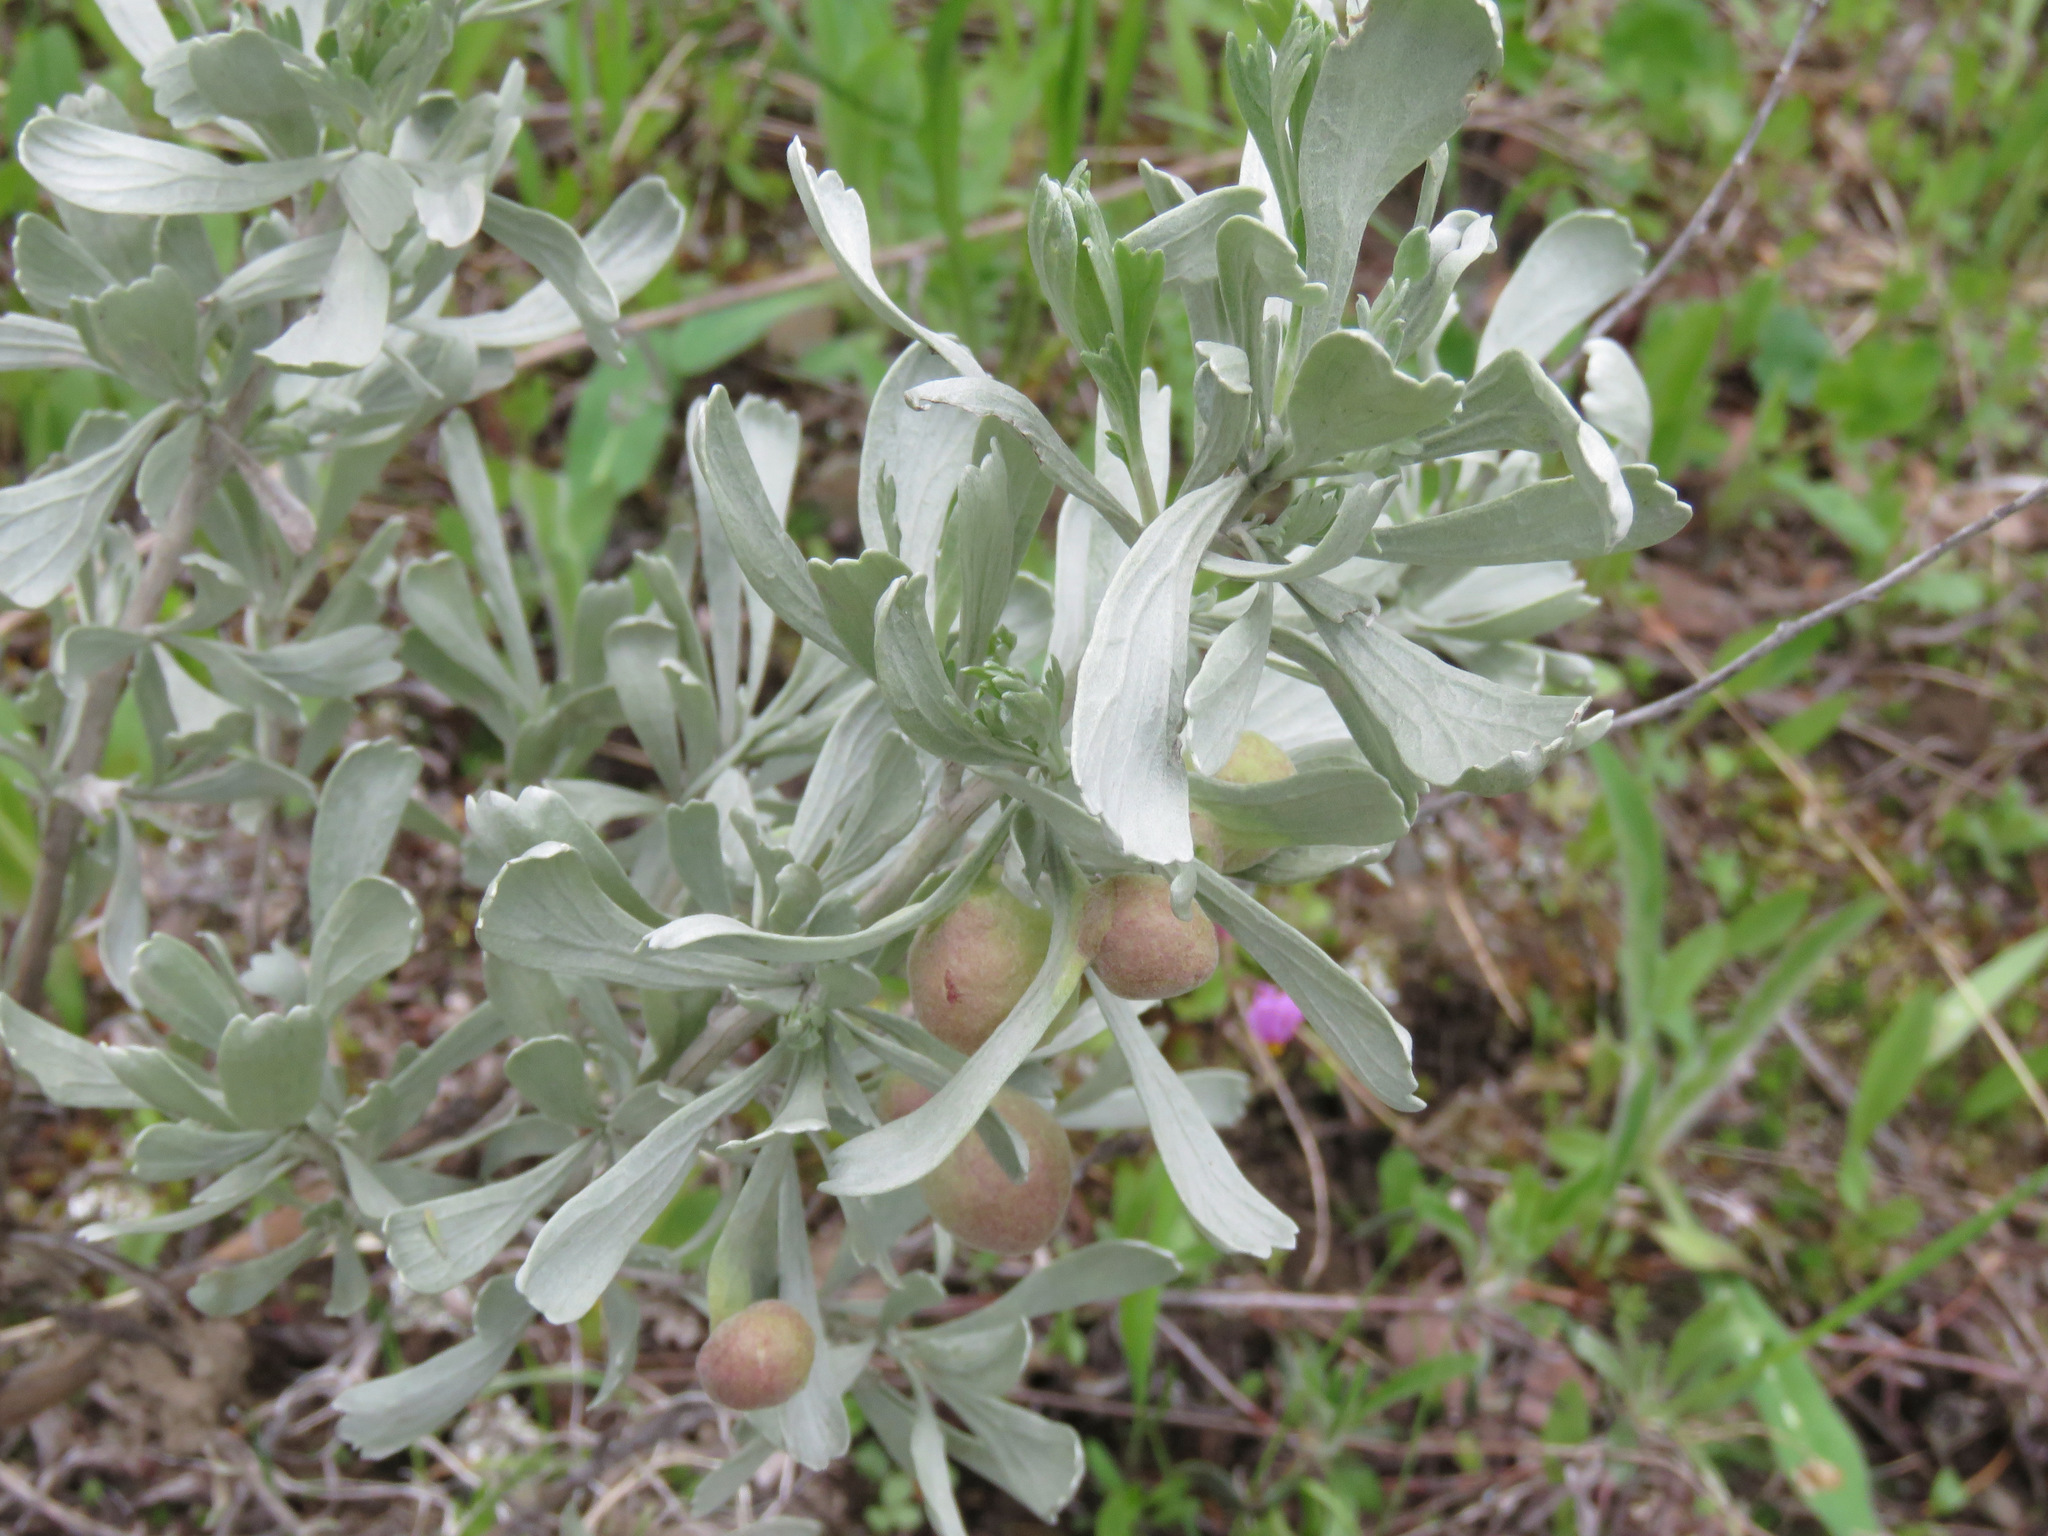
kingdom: Plantae
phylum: Tracheophyta
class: Magnoliopsida
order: Asterales
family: Asteraceae
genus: Artemisia
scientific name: Artemisia tridentata
